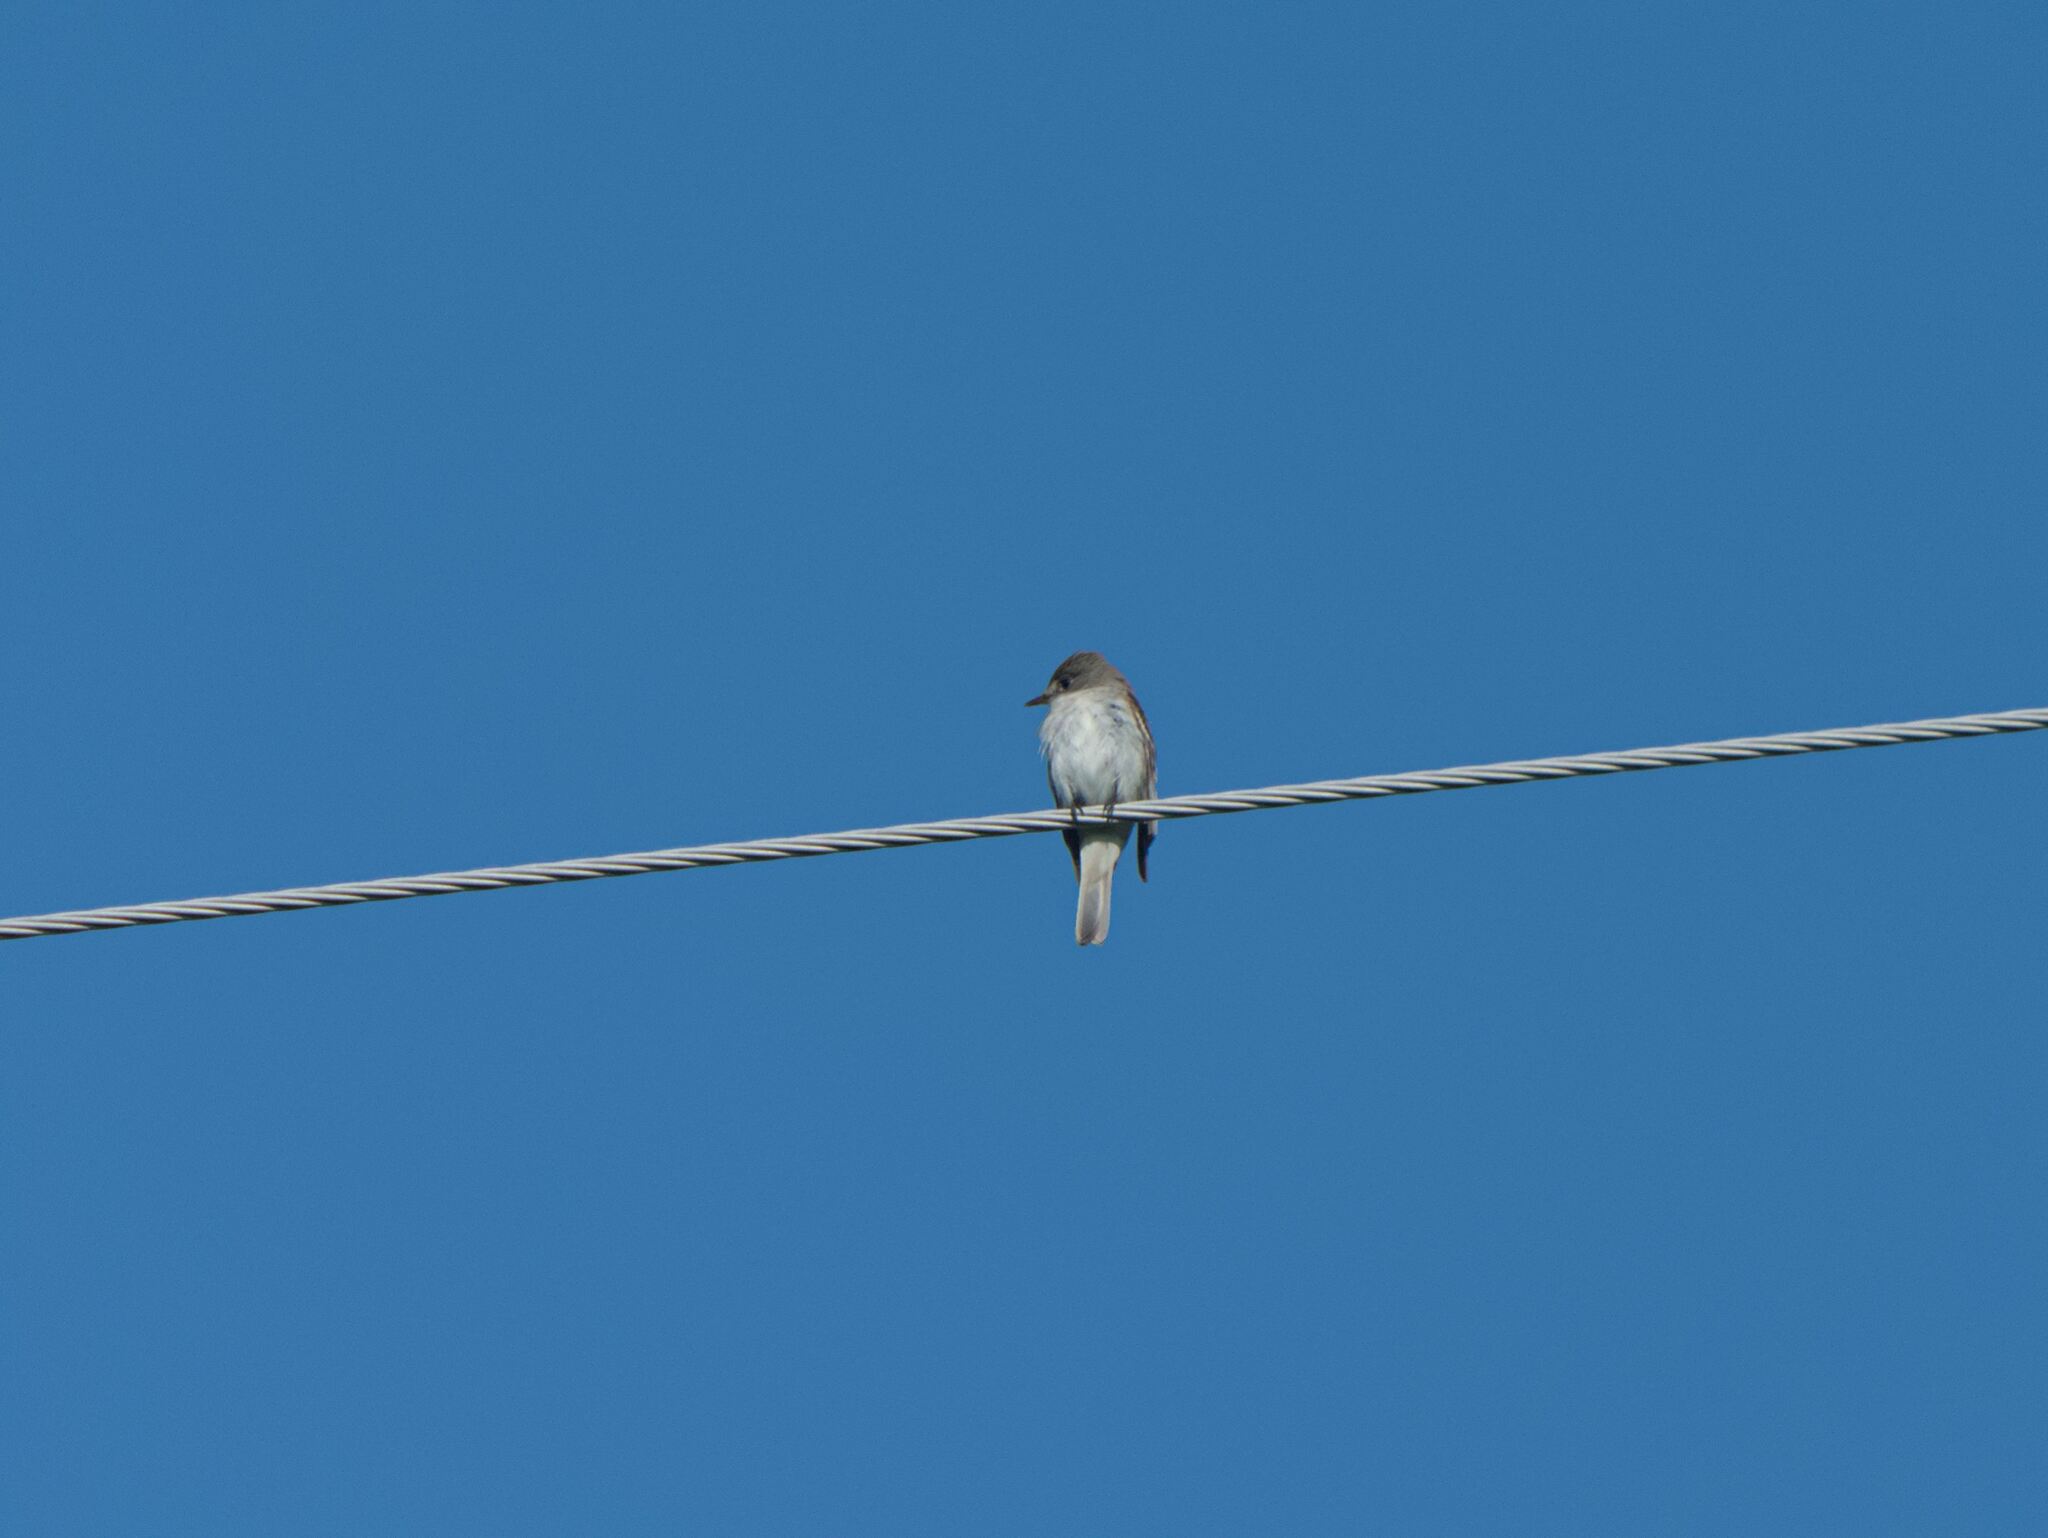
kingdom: Animalia
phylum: Chordata
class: Aves
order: Passeriformes
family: Tyrannidae
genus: Sayornis
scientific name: Sayornis phoebe
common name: Eastern phoebe
